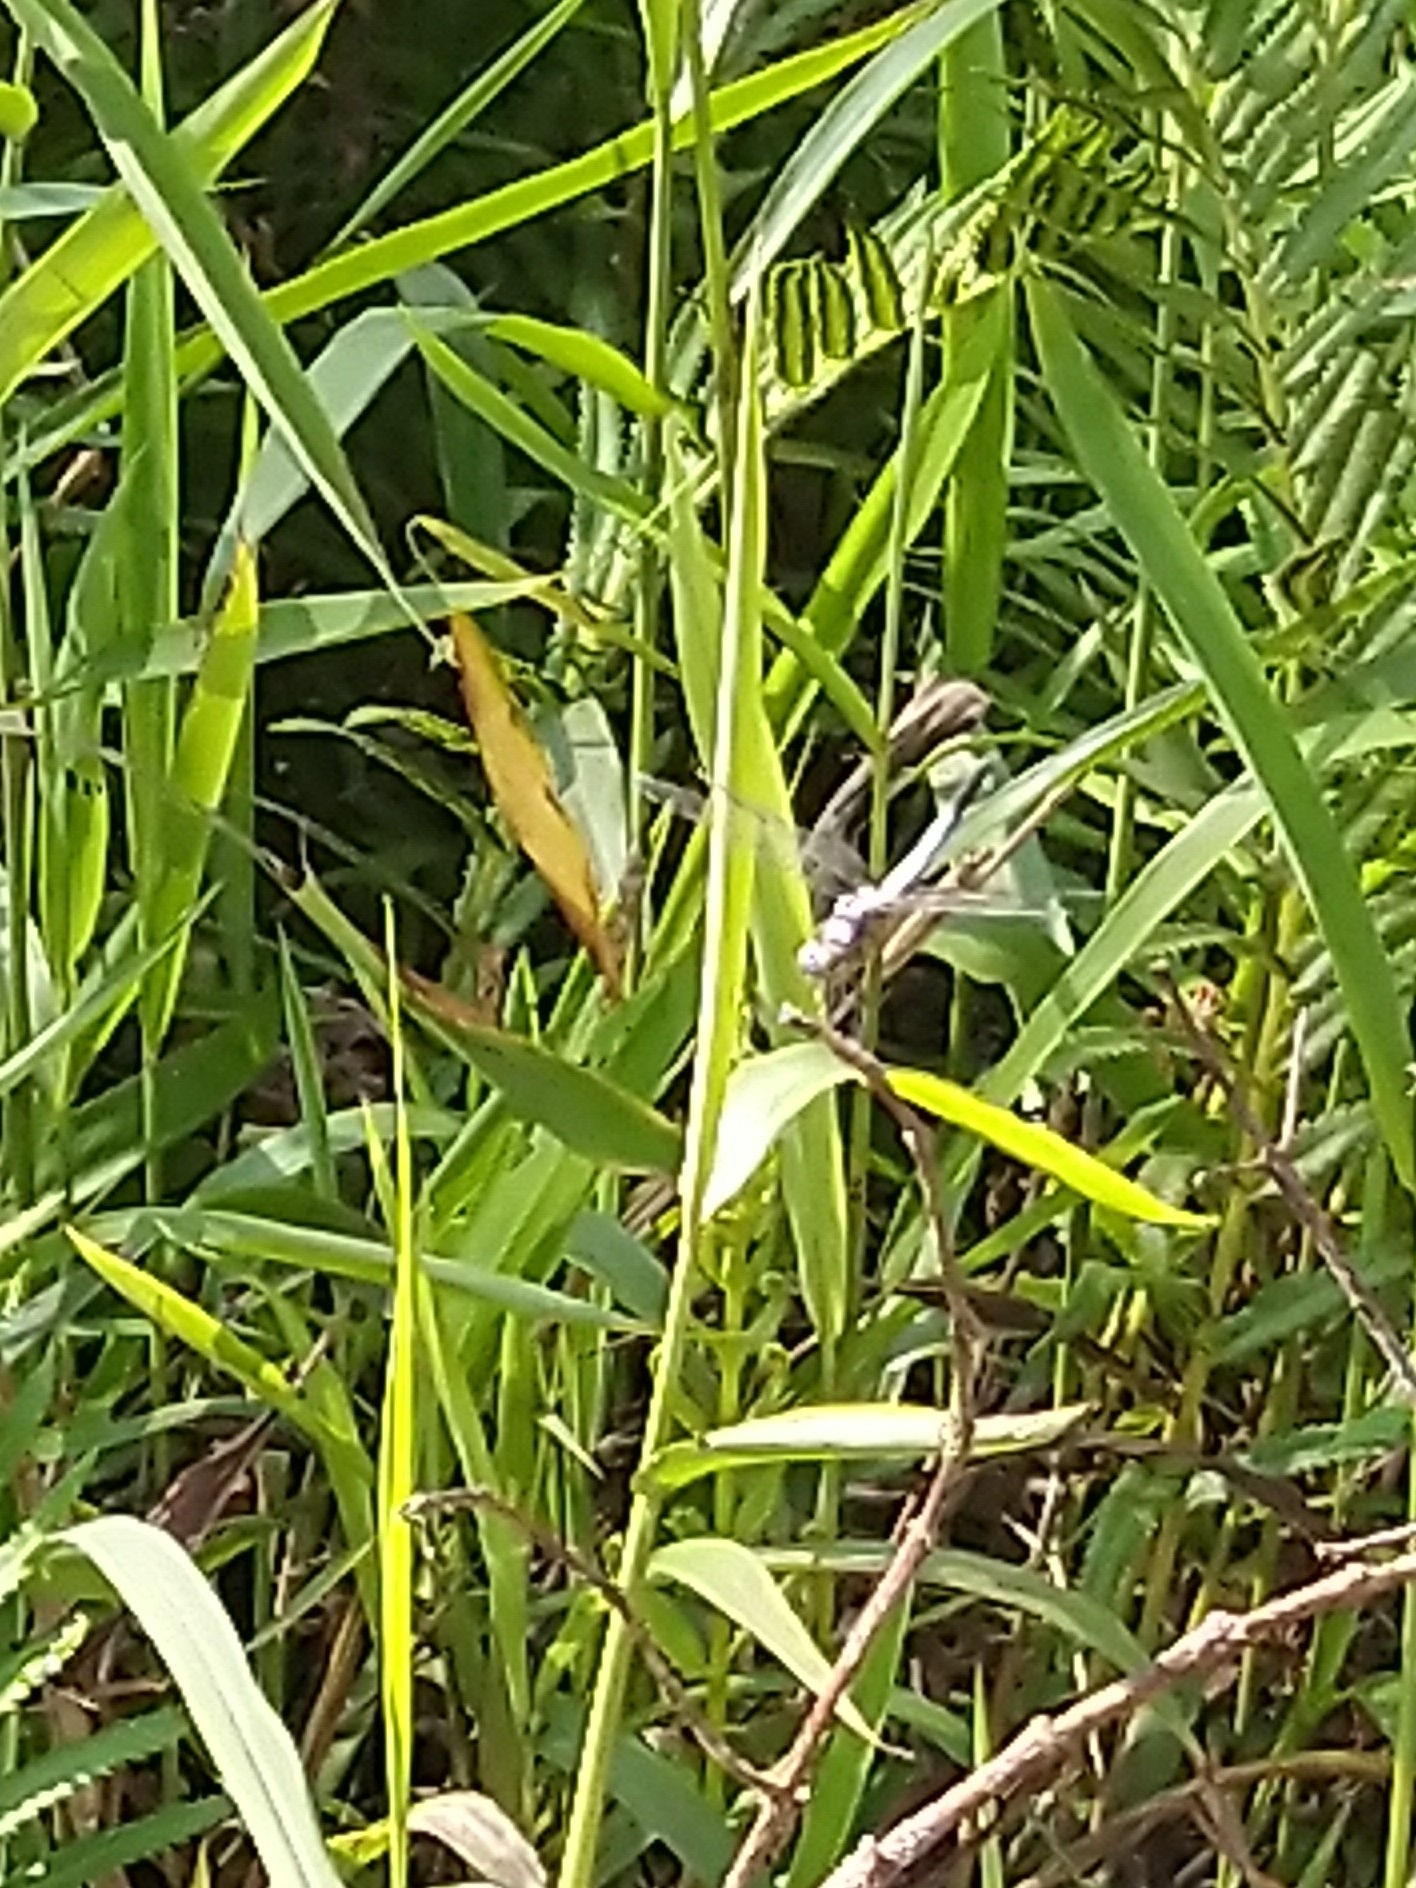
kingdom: Animalia
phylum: Arthropoda
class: Insecta
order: Odonata
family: Libellulidae
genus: Brachydiplax
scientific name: Brachydiplax chalybea
